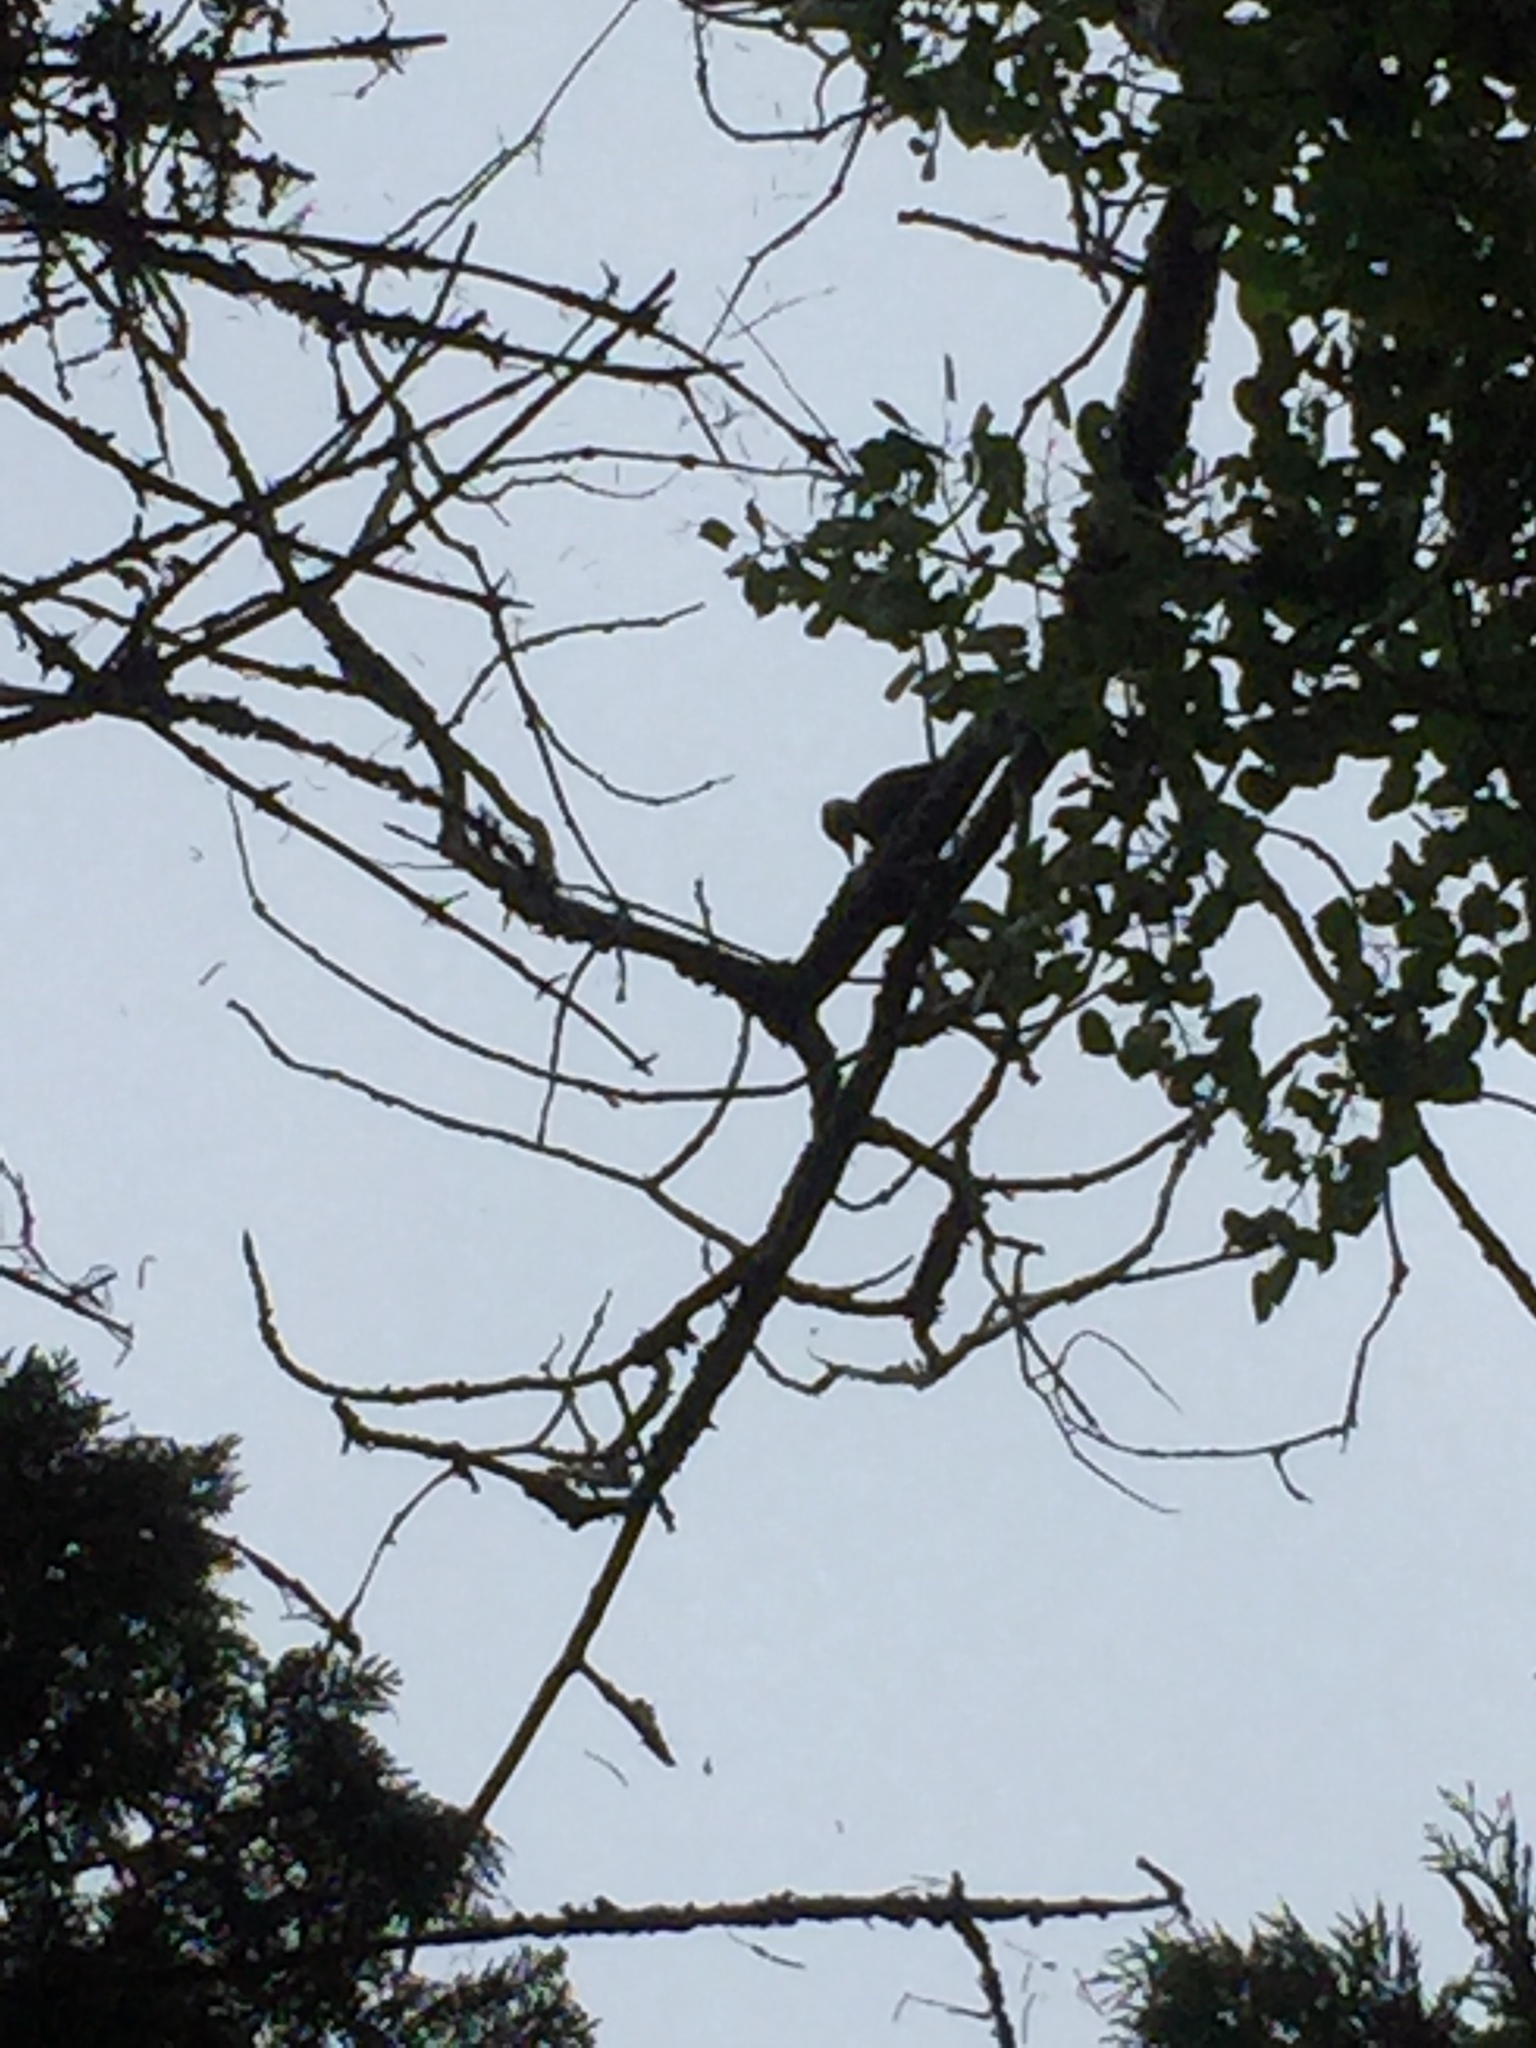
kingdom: Animalia
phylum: Chordata
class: Aves
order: Piciformes
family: Picidae
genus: Dryocopus
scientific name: Dryocopus pileatus
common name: Pileated woodpecker
